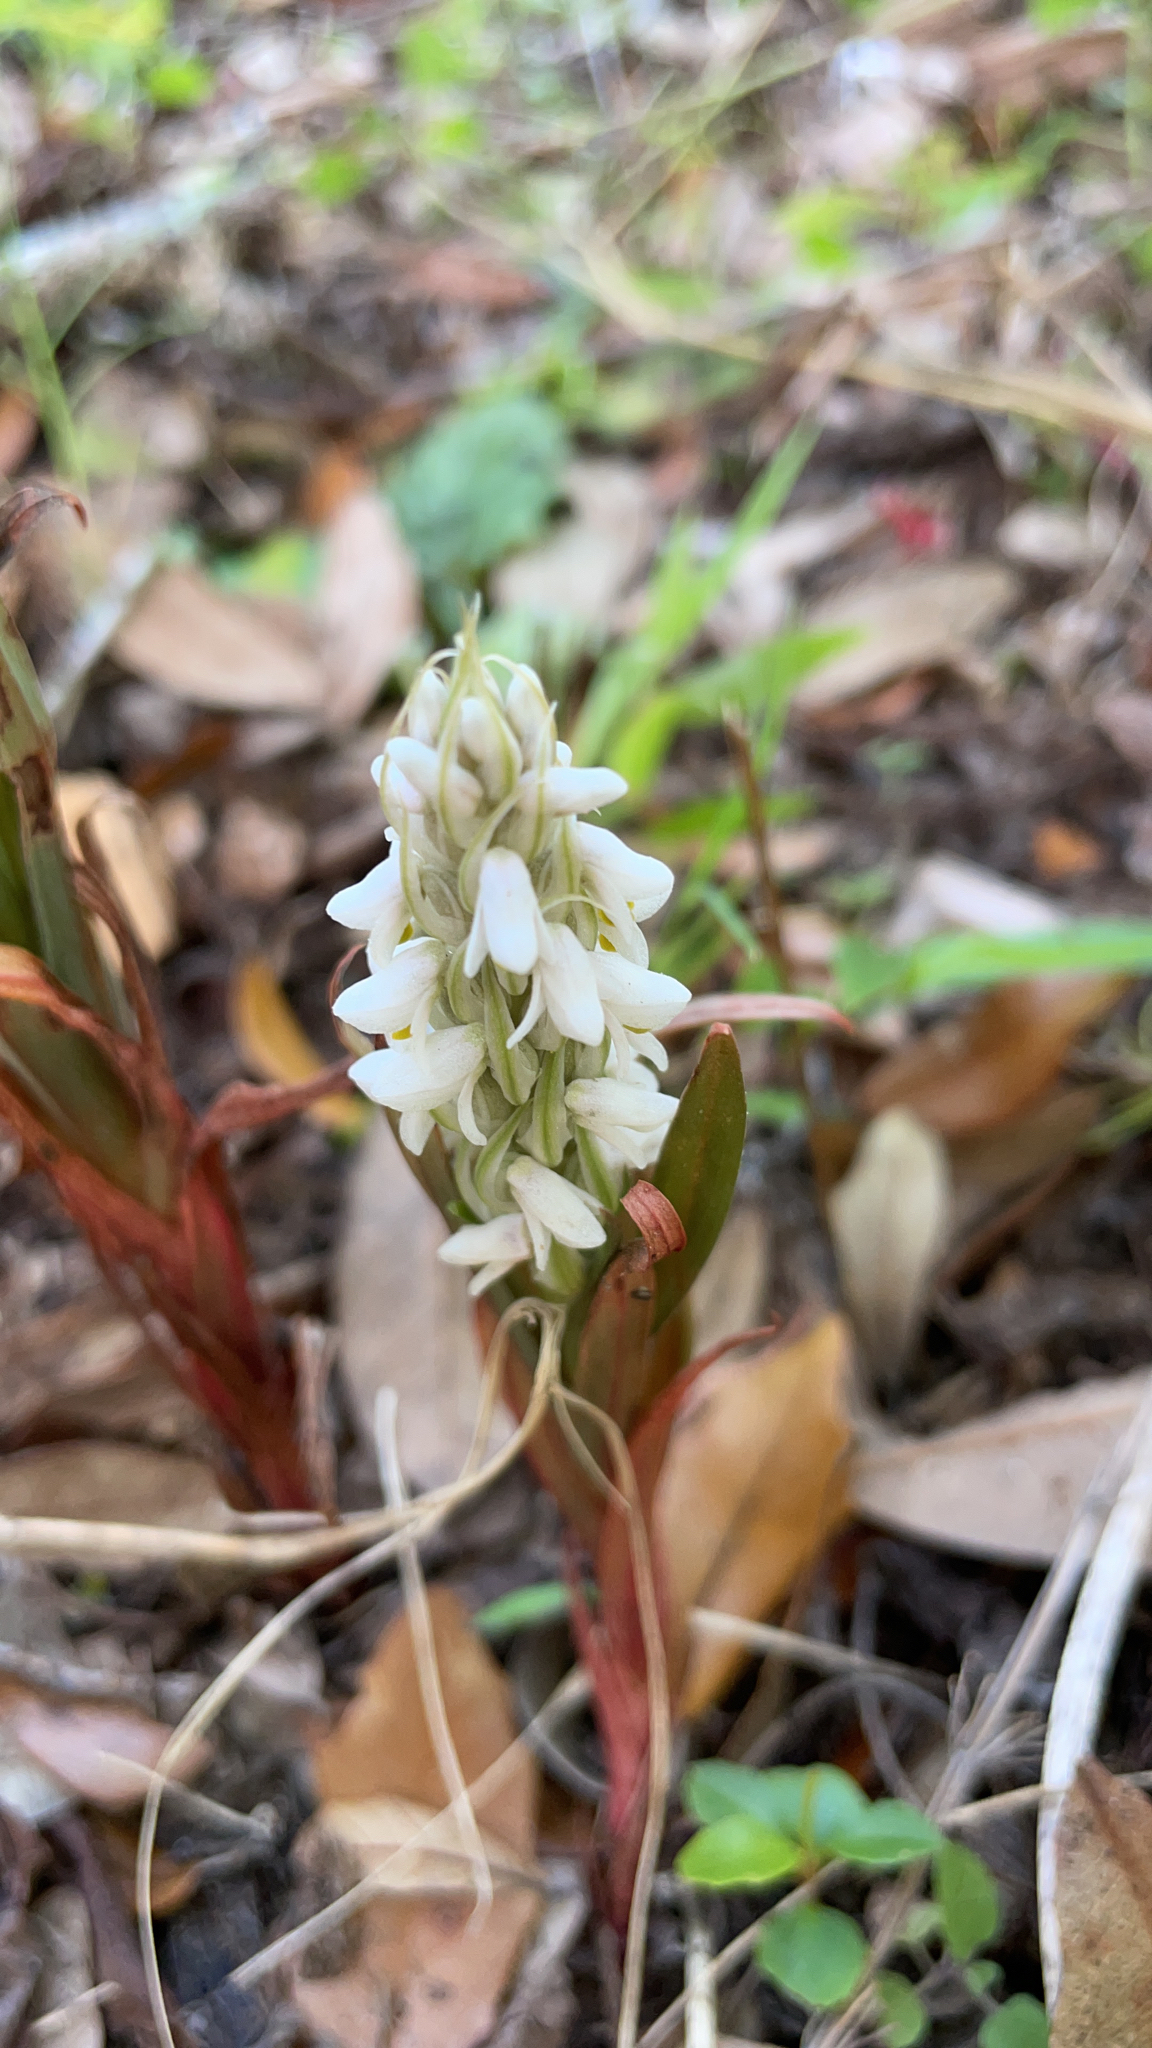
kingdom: Plantae
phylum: Tracheophyta
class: Liliopsida
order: Asparagales
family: Orchidaceae
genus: Zeuxine
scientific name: Zeuxine strateumatica
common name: Soldier's orchid
